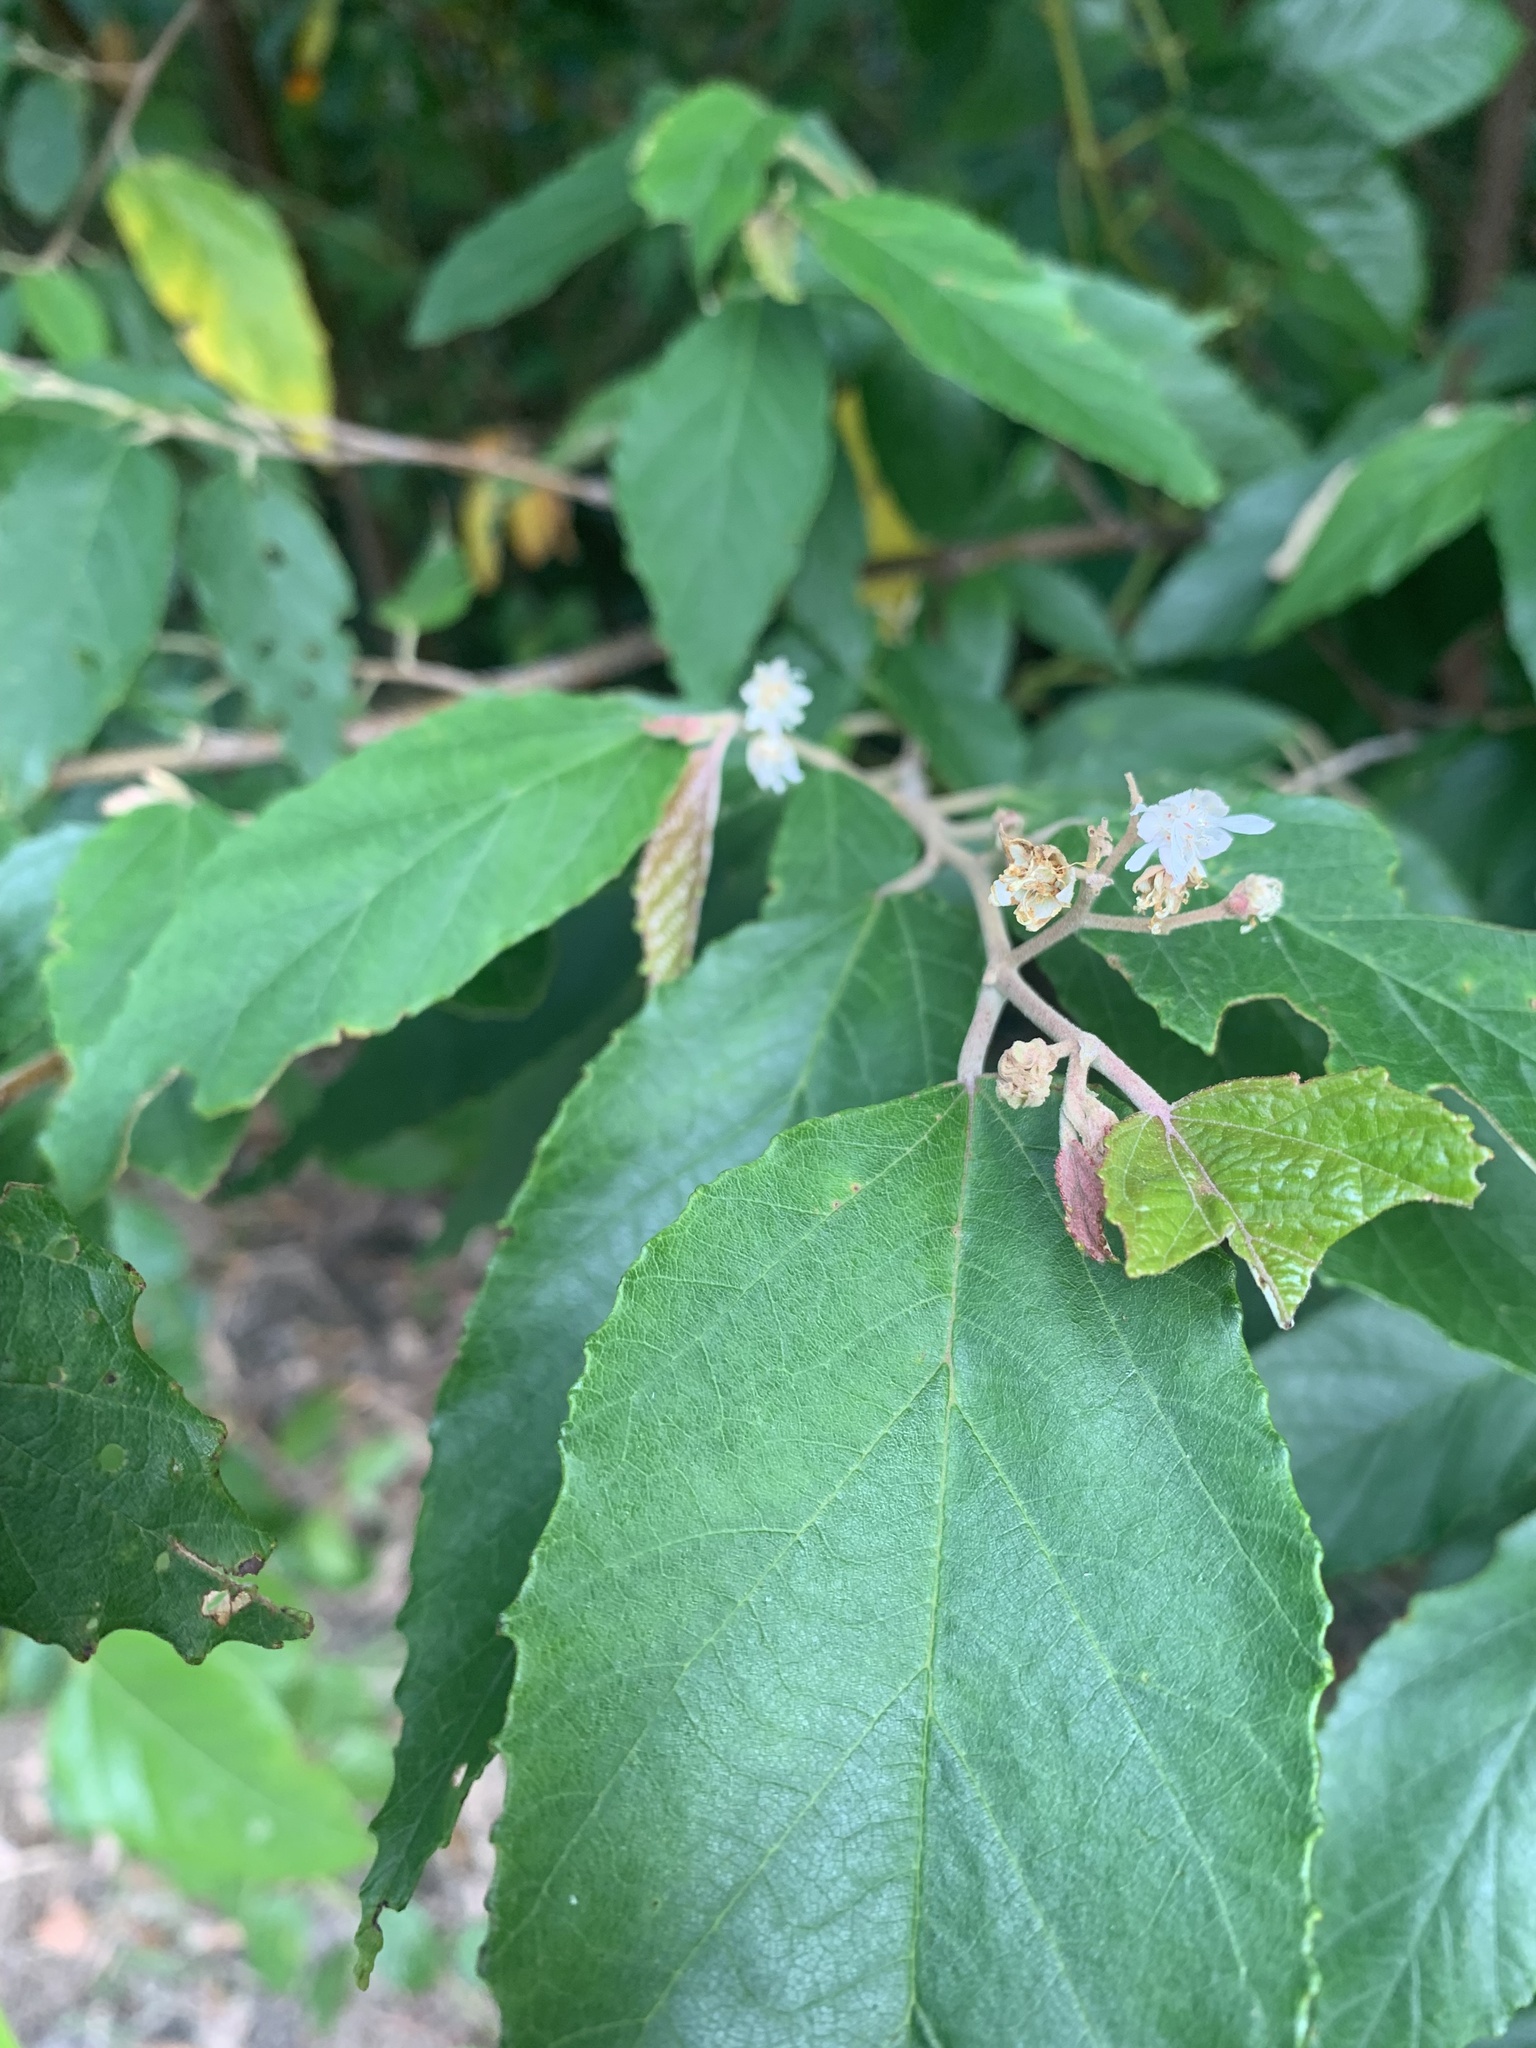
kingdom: Plantae
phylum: Tracheophyta
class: Magnoliopsida
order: Malvales
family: Malvaceae
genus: Androcalva
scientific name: Androcalva fraseri
